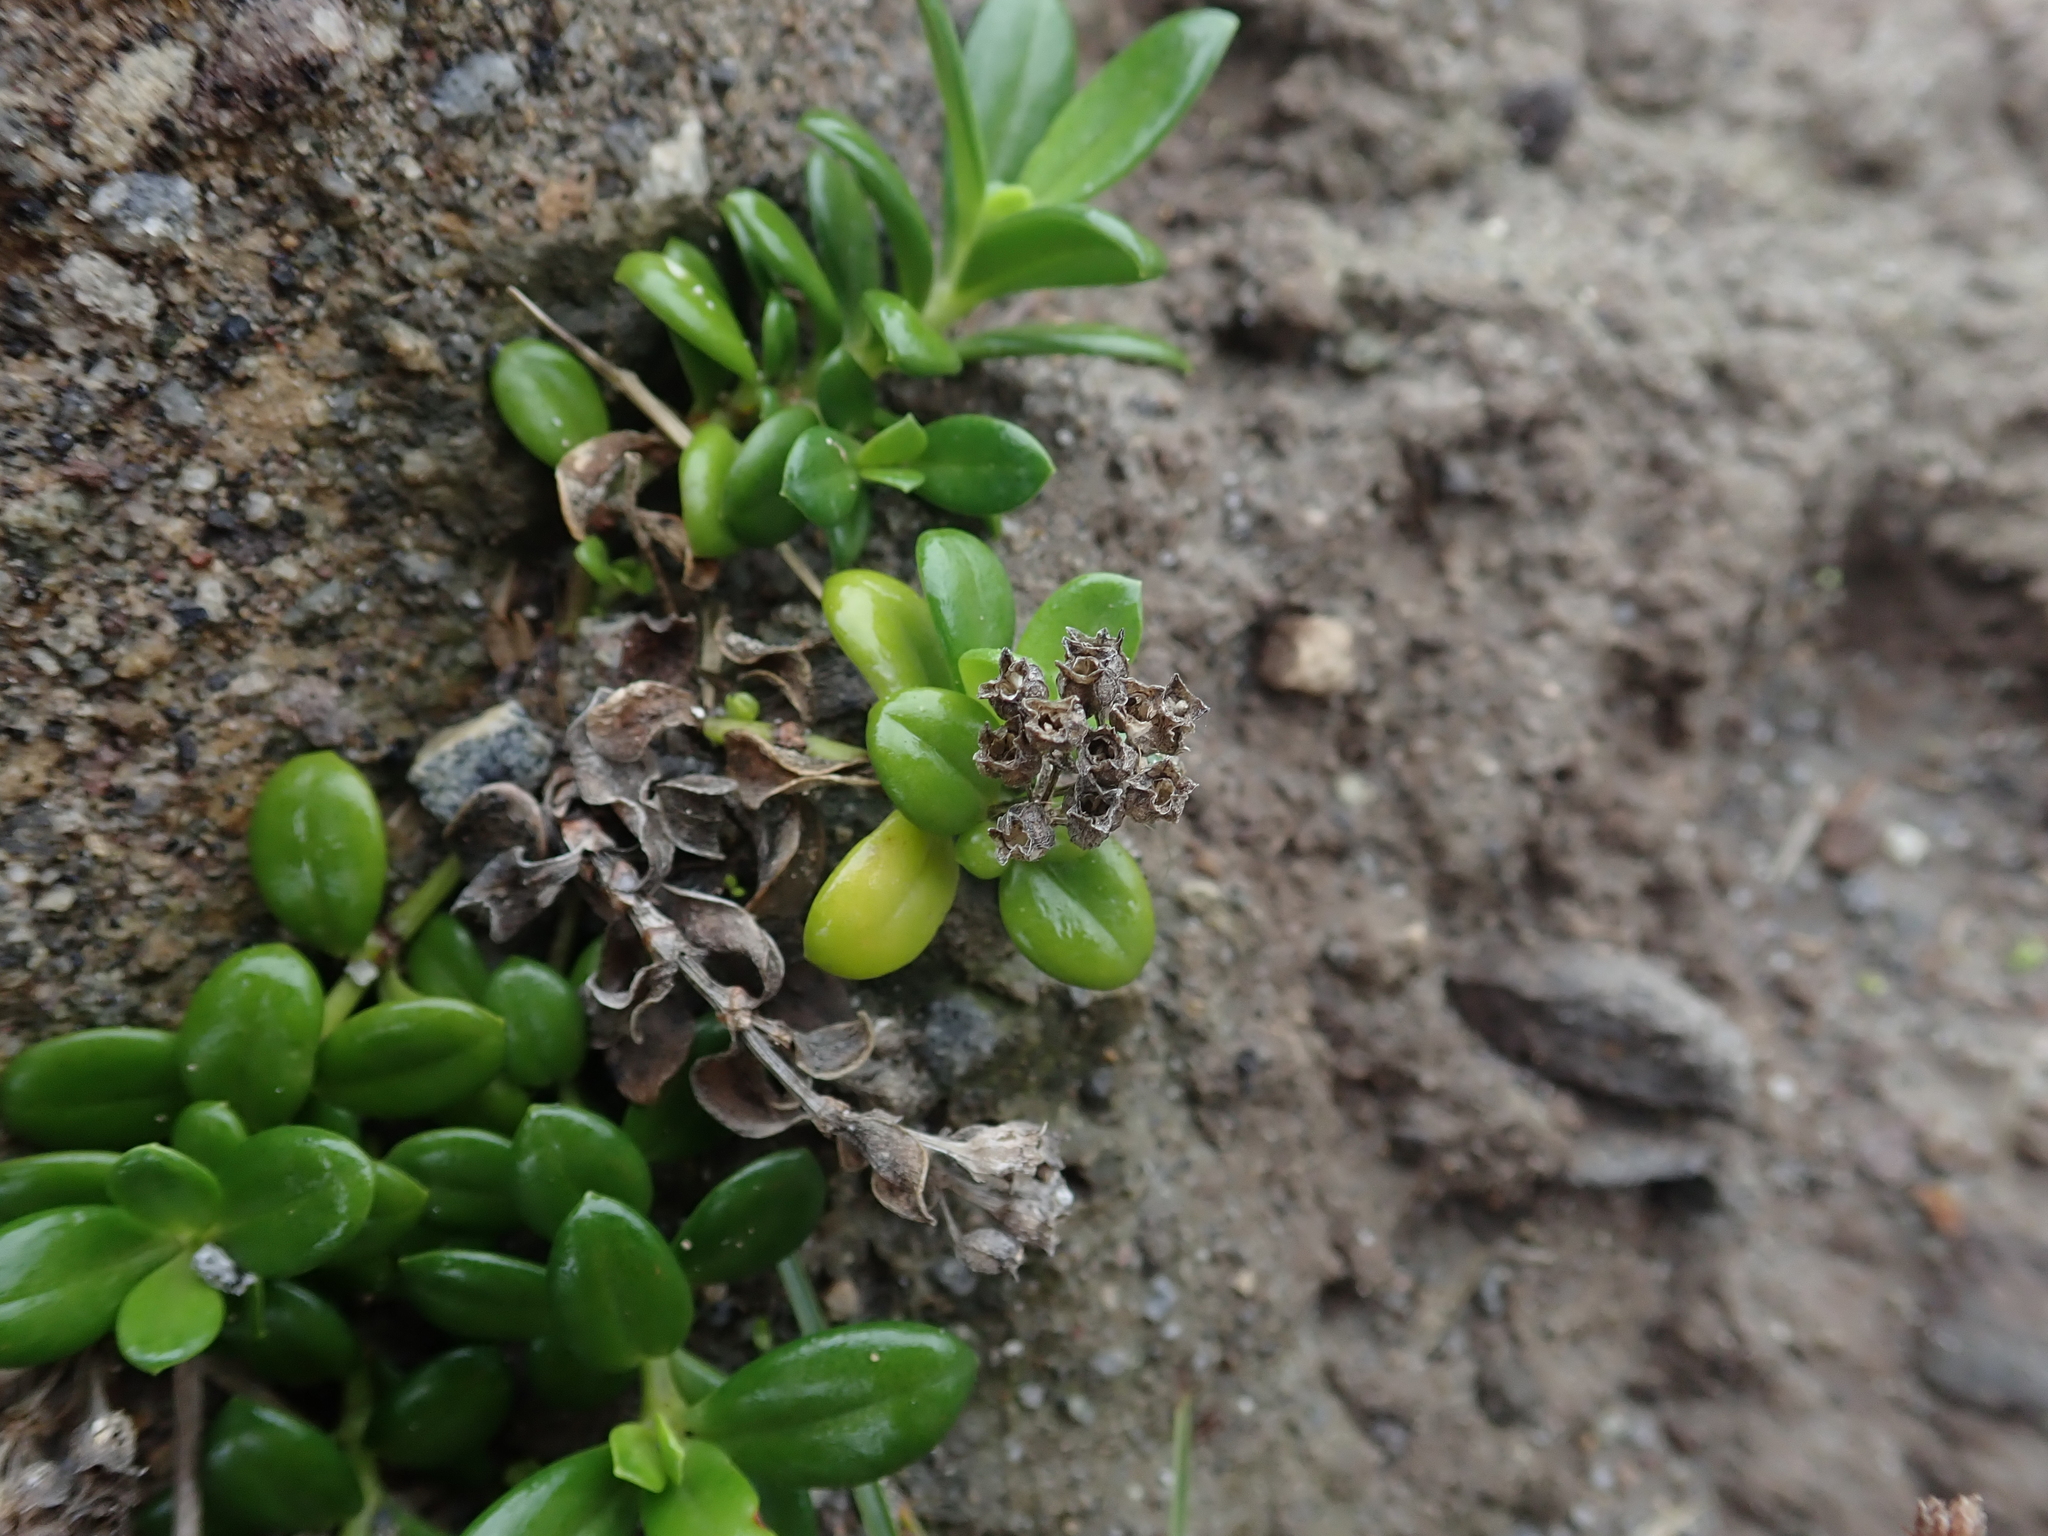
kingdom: Plantae
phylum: Tracheophyta
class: Magnoliopsida
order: Gentianales
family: Rubiaceae
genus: Leptopetalum
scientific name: Leptopetalum strigulosum
